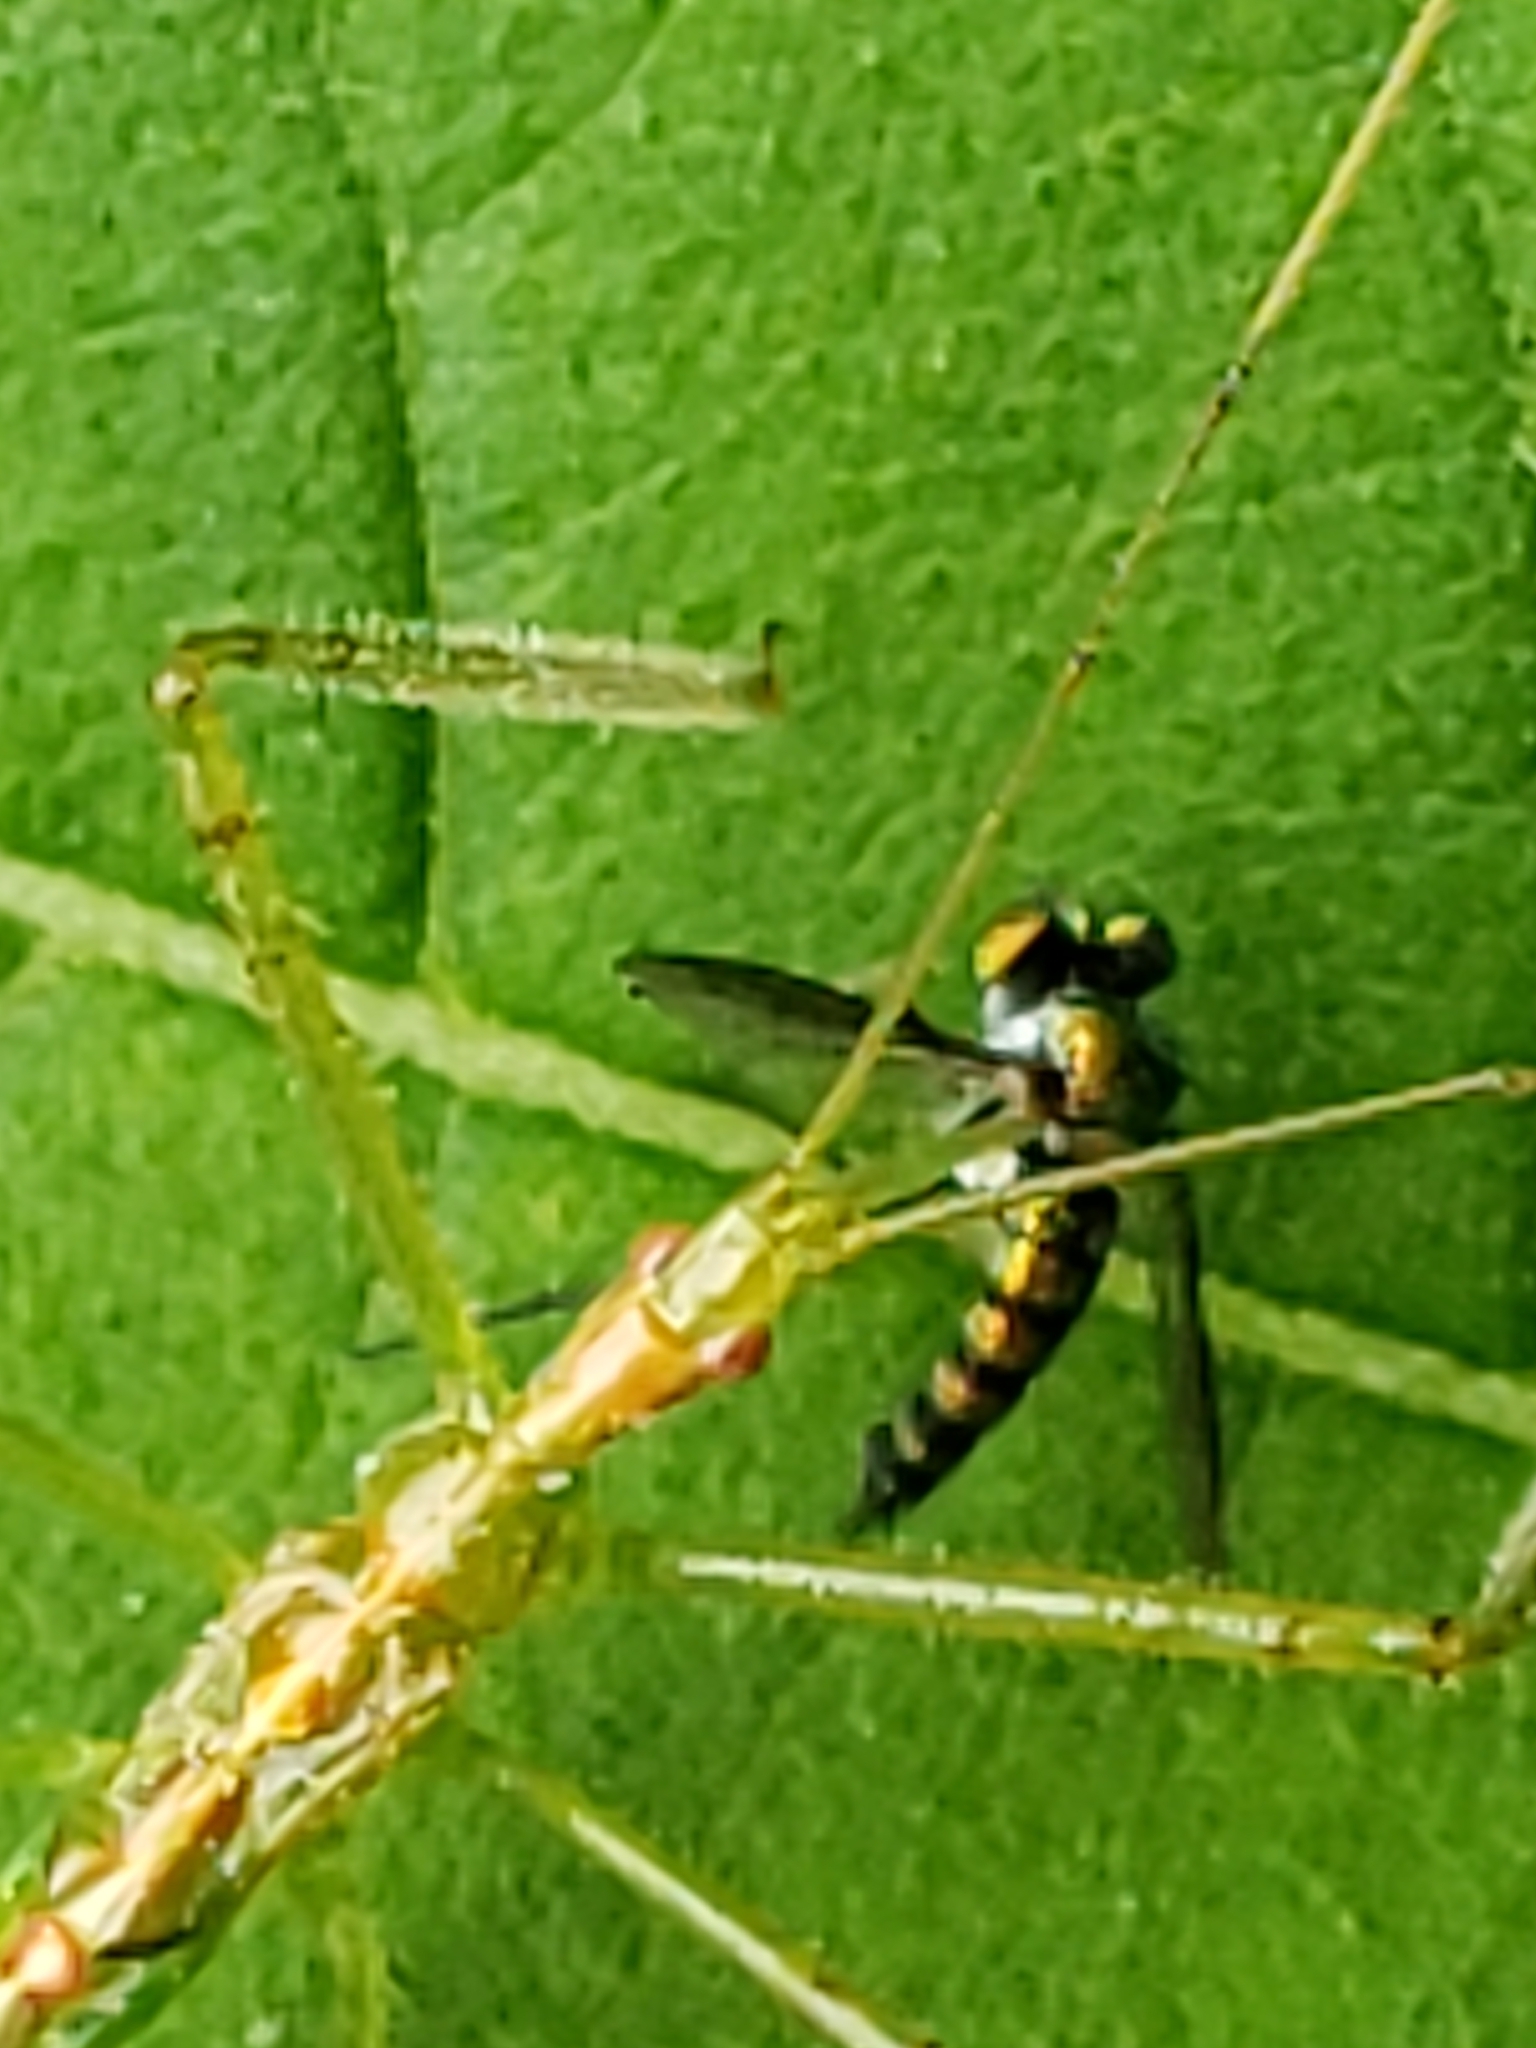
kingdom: Animalia
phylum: Arthropoda
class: Insecta
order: Hemiptera
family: Reduviidae
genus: Zelus
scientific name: Zelus luridus
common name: Pale green assassin bug
